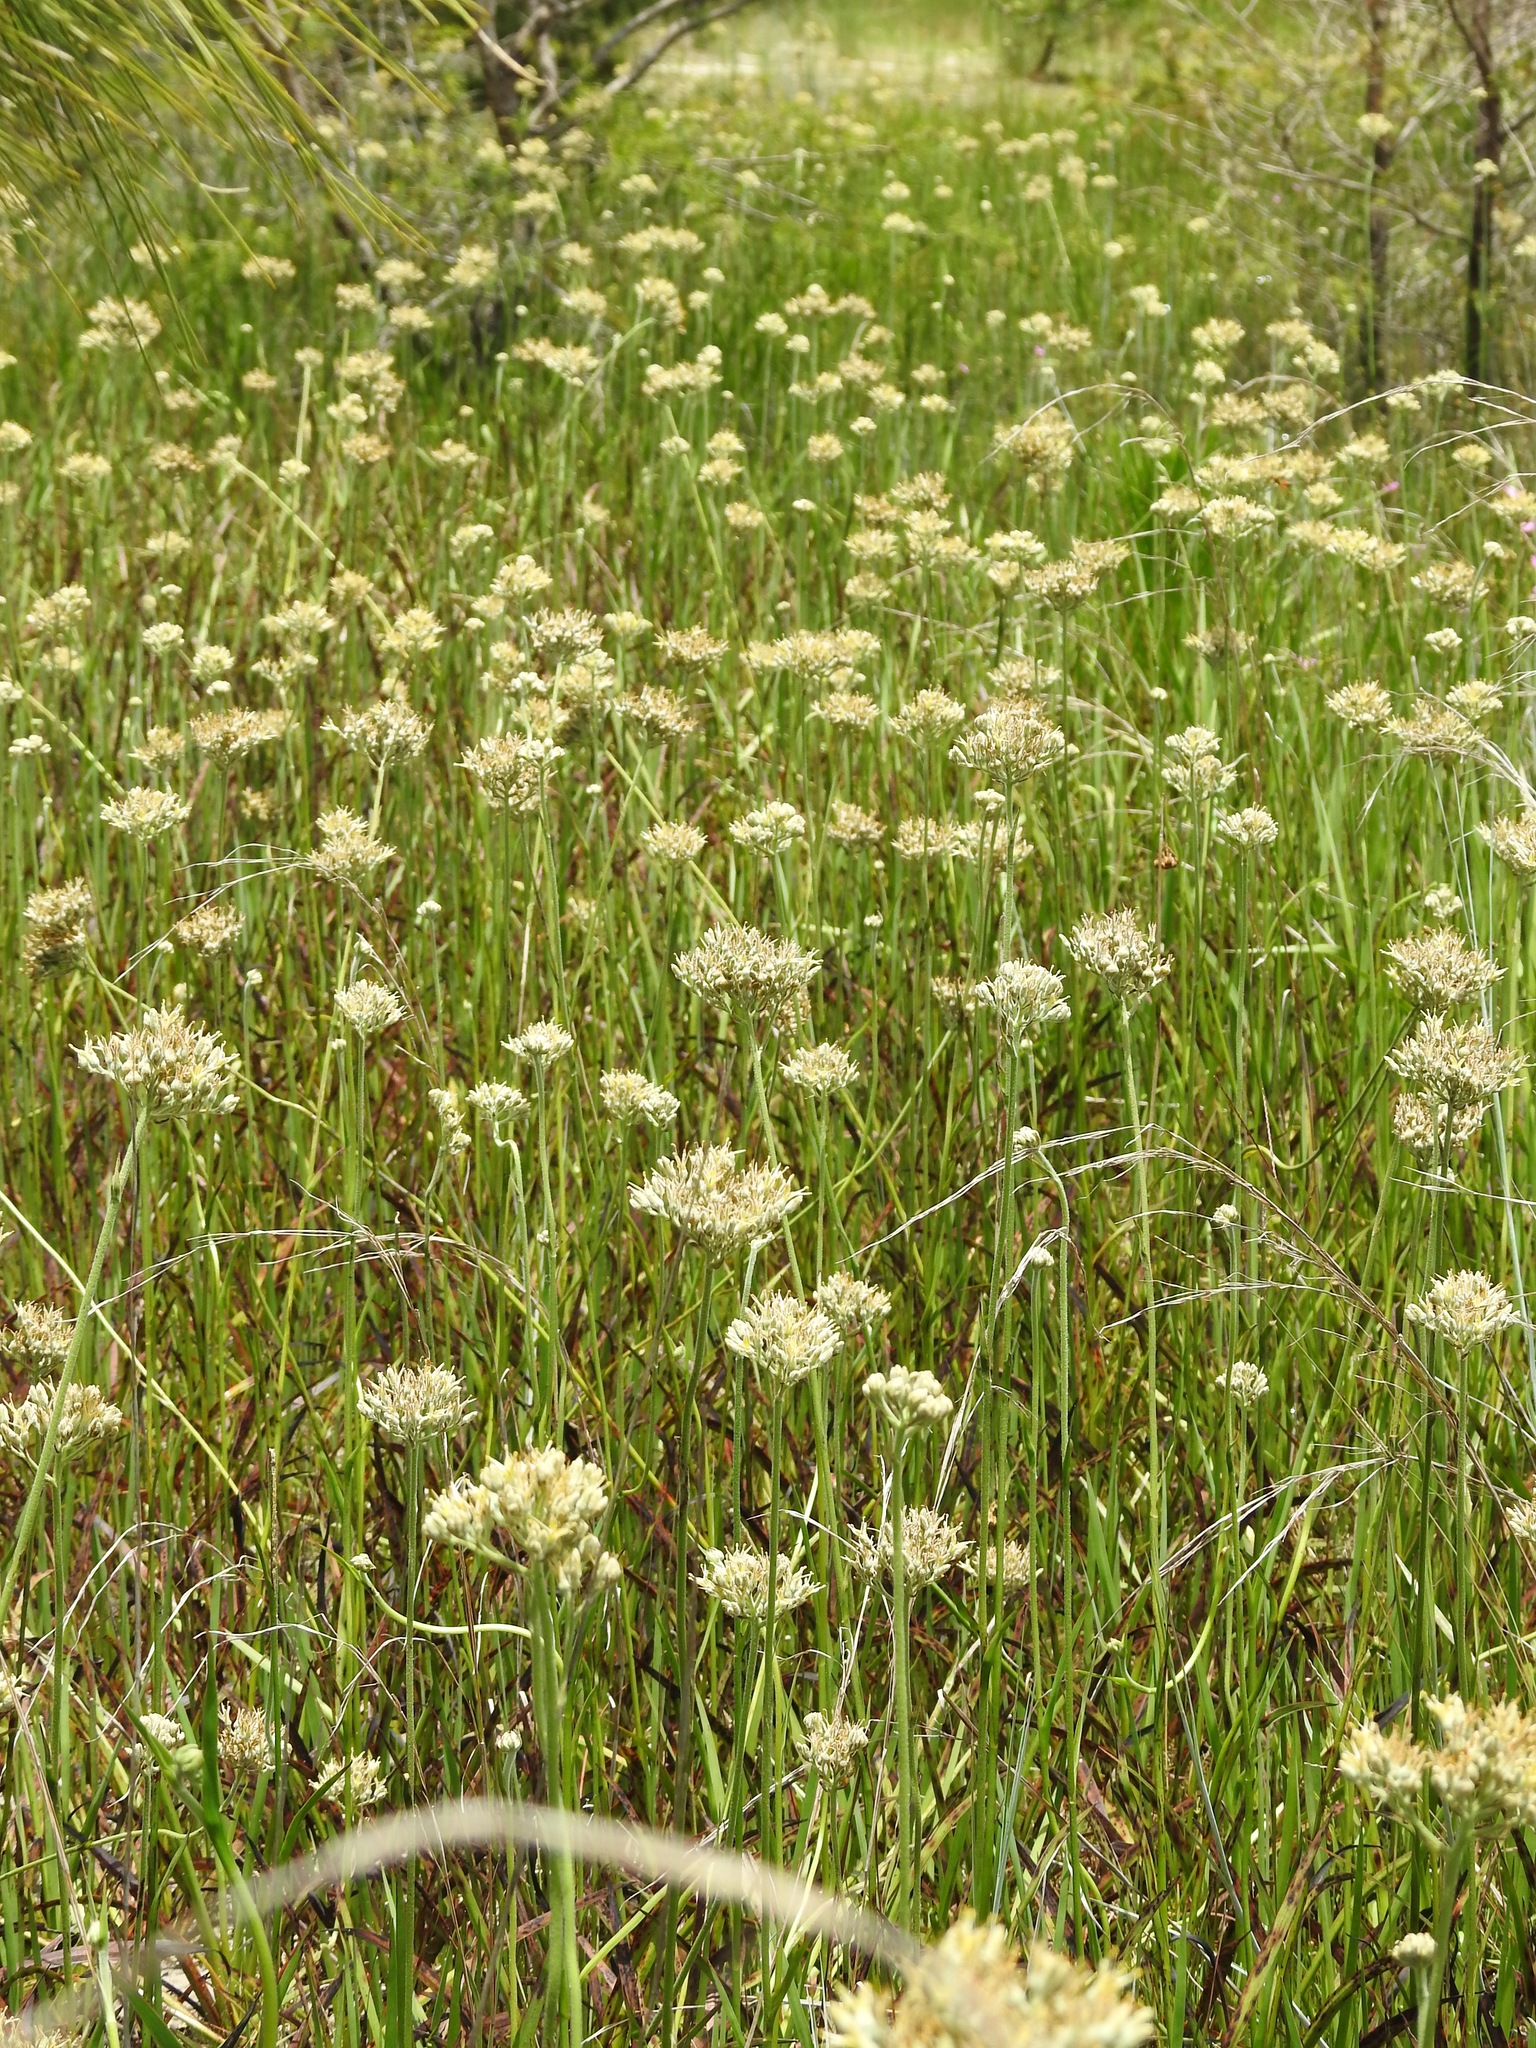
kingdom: Plantae
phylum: Tracheophyta
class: Liliopsida
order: Commelinales
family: Haemodoraceae
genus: Lachnanthes
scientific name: Lachnanthes caroliana
